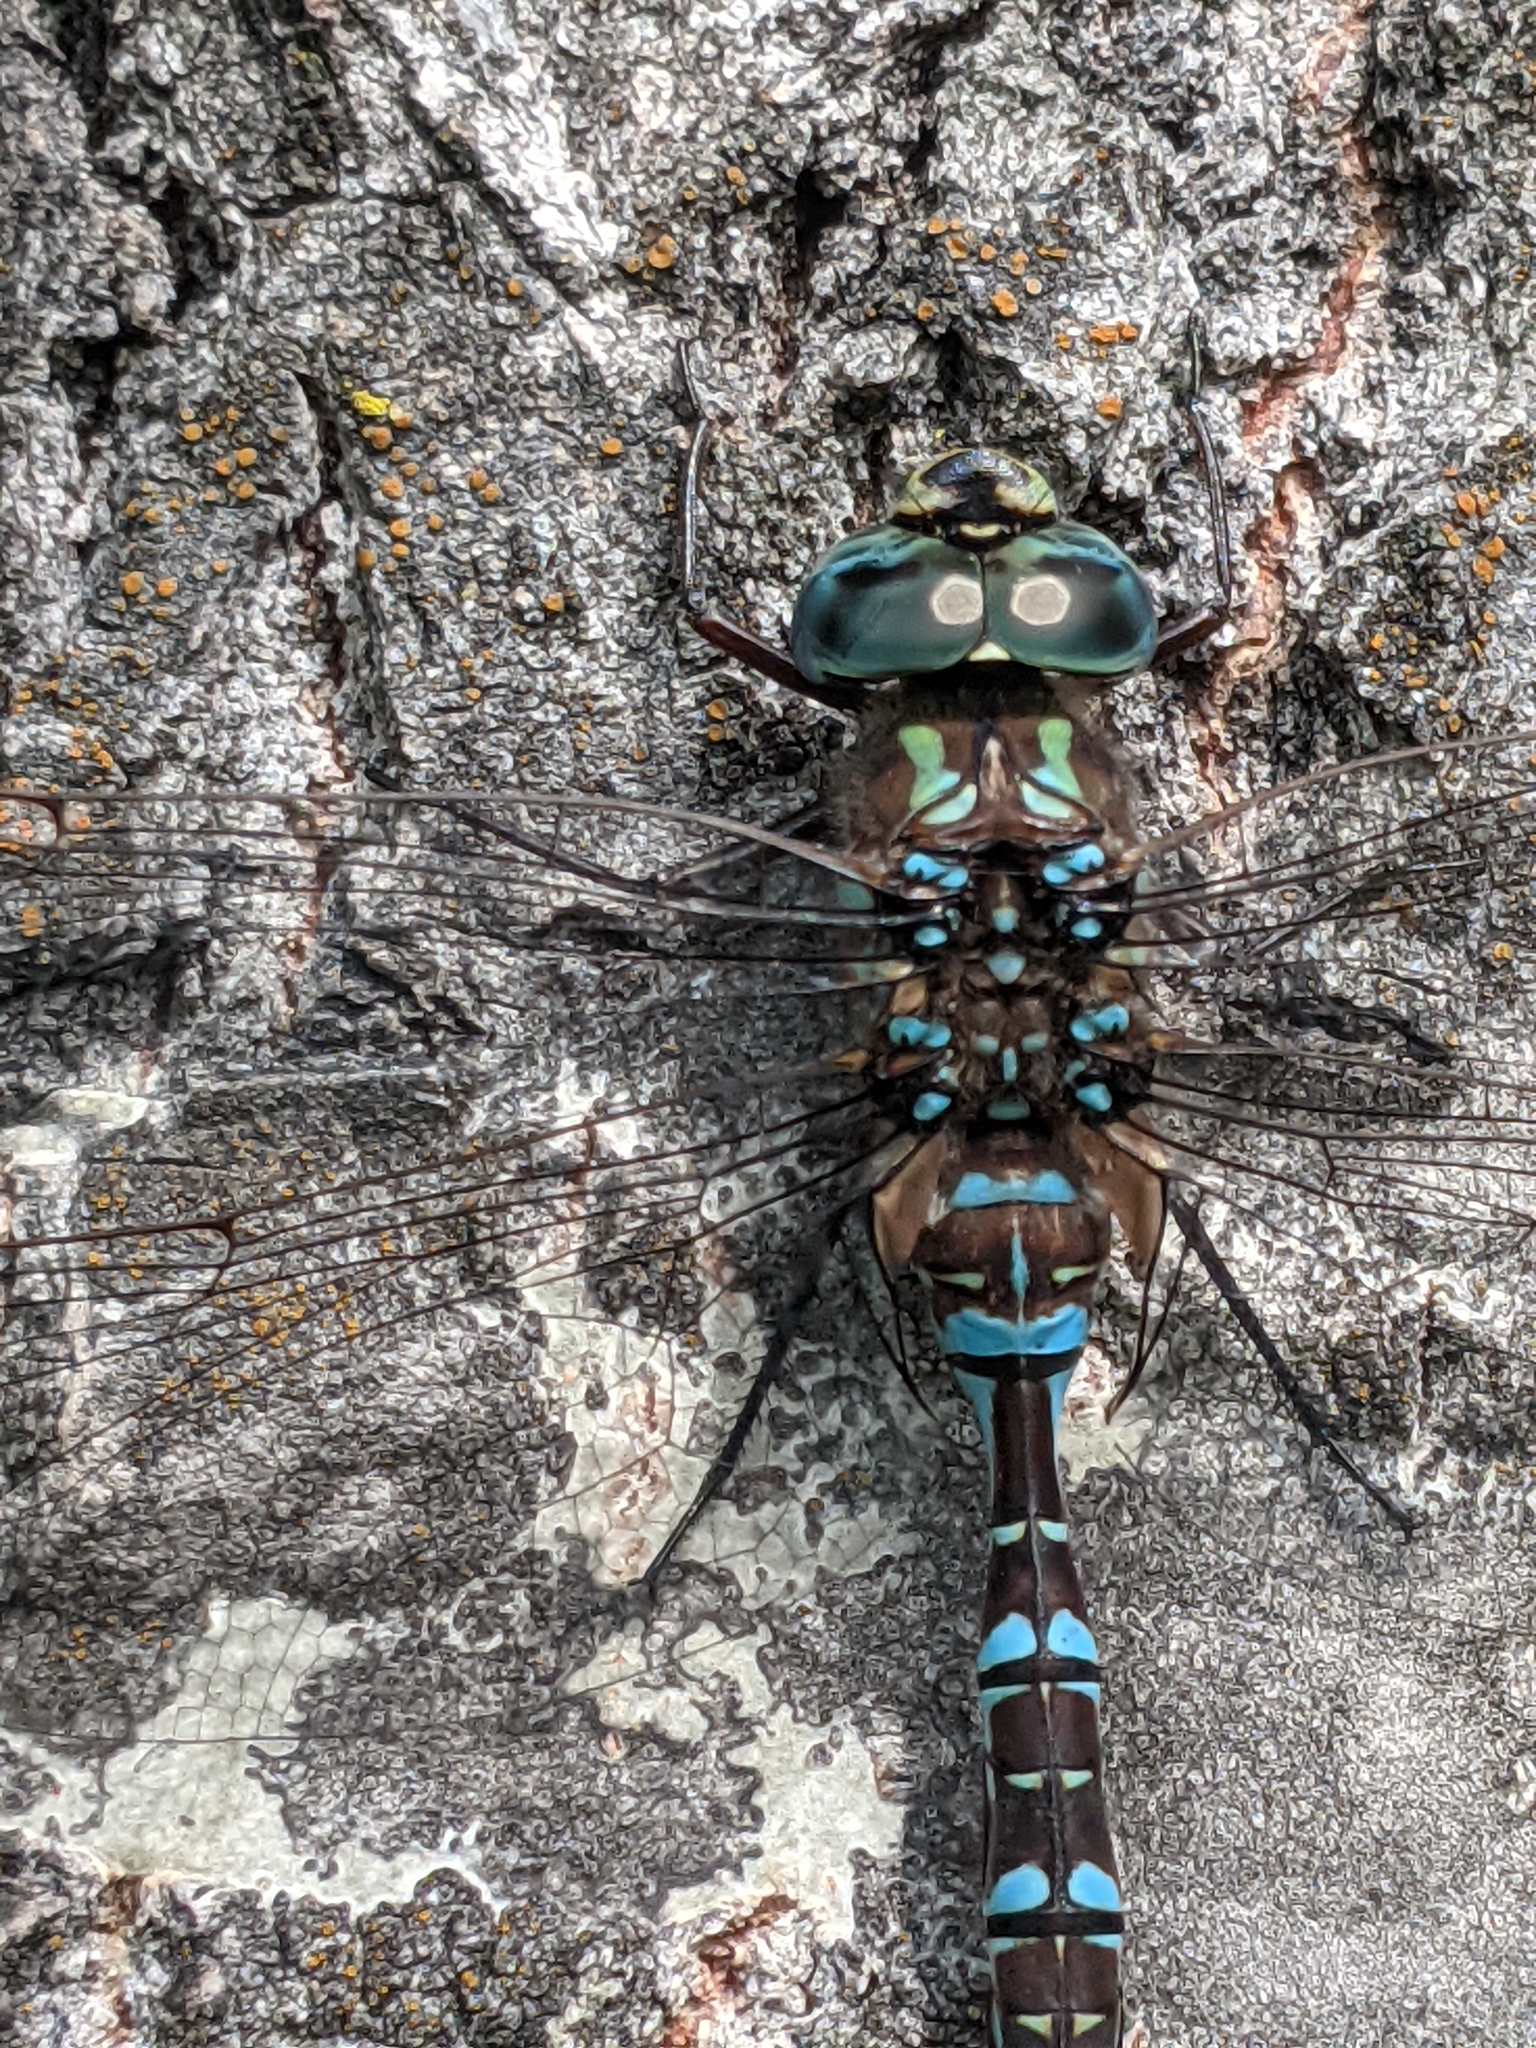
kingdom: Animalia
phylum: Arthropoda
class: Insecta
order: Odonata
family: Aeshnidae
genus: Aeshna
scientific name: Aeshna canadensis
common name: Canada darner
